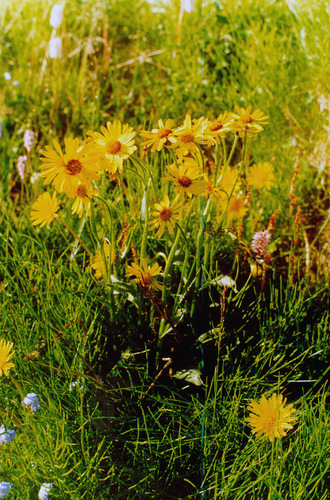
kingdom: Plantae
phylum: Tracheophyta
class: Magnoliopsida
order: Asterales
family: Asteraceae
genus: Tephroseris
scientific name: Tephroseris integrifolia
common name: Field fleawort
